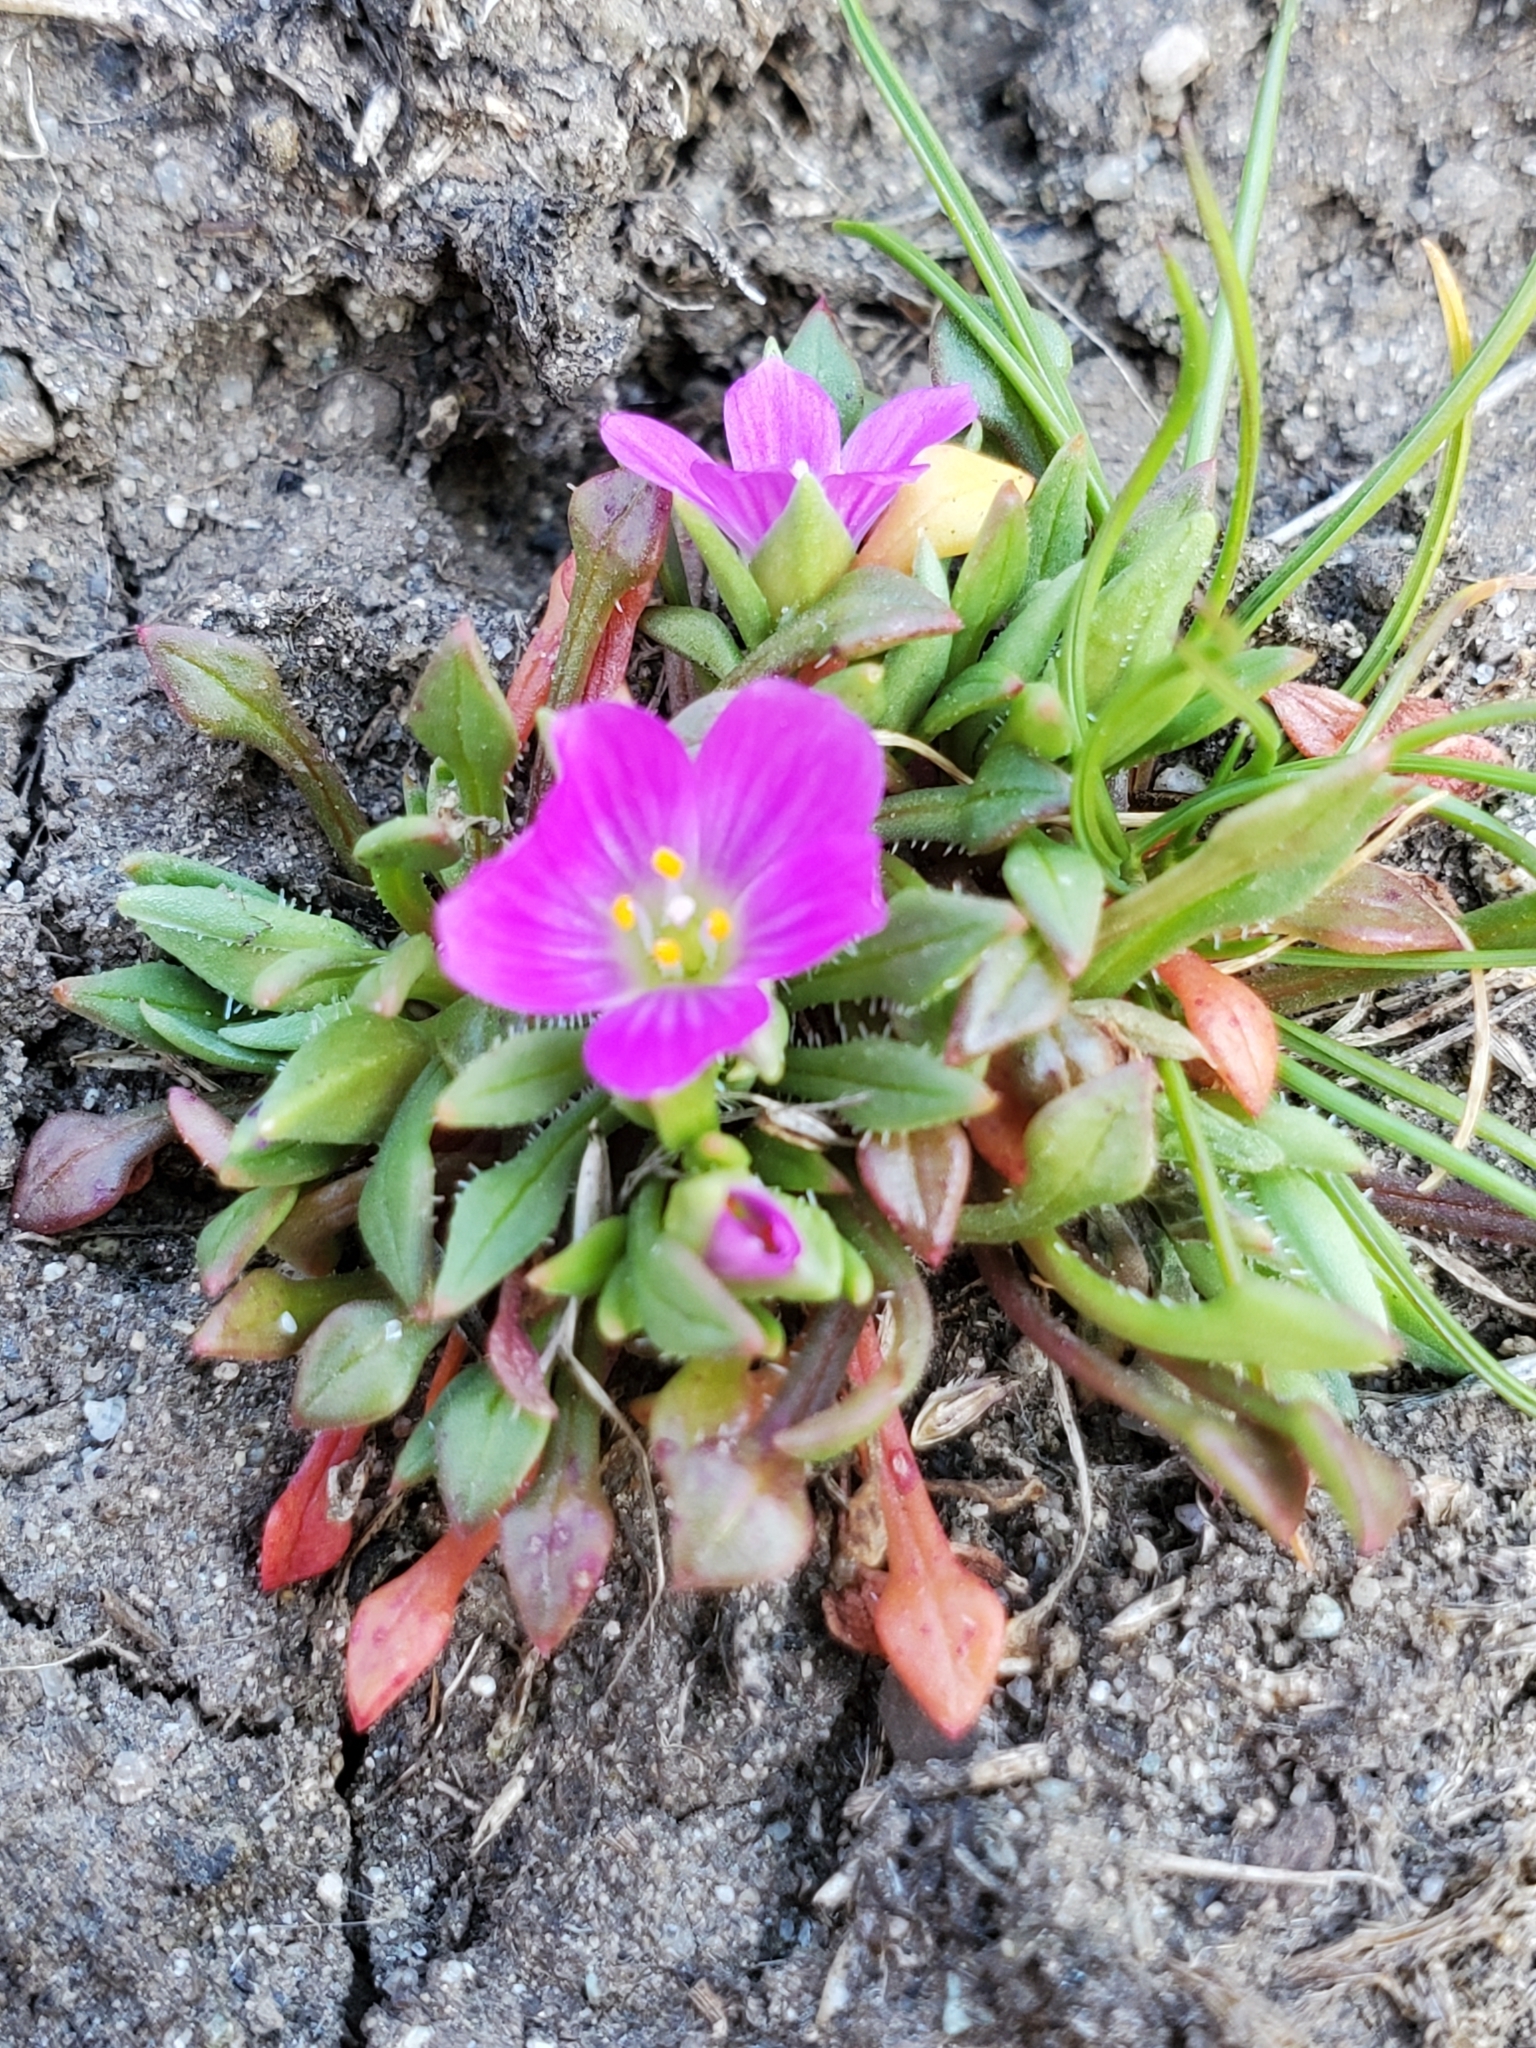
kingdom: Plantae
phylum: Tracheophyta
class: Magnoliopsida
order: Caryophyllales
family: Montiaceae
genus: Calandrinia
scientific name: Calandrinia menziesii
